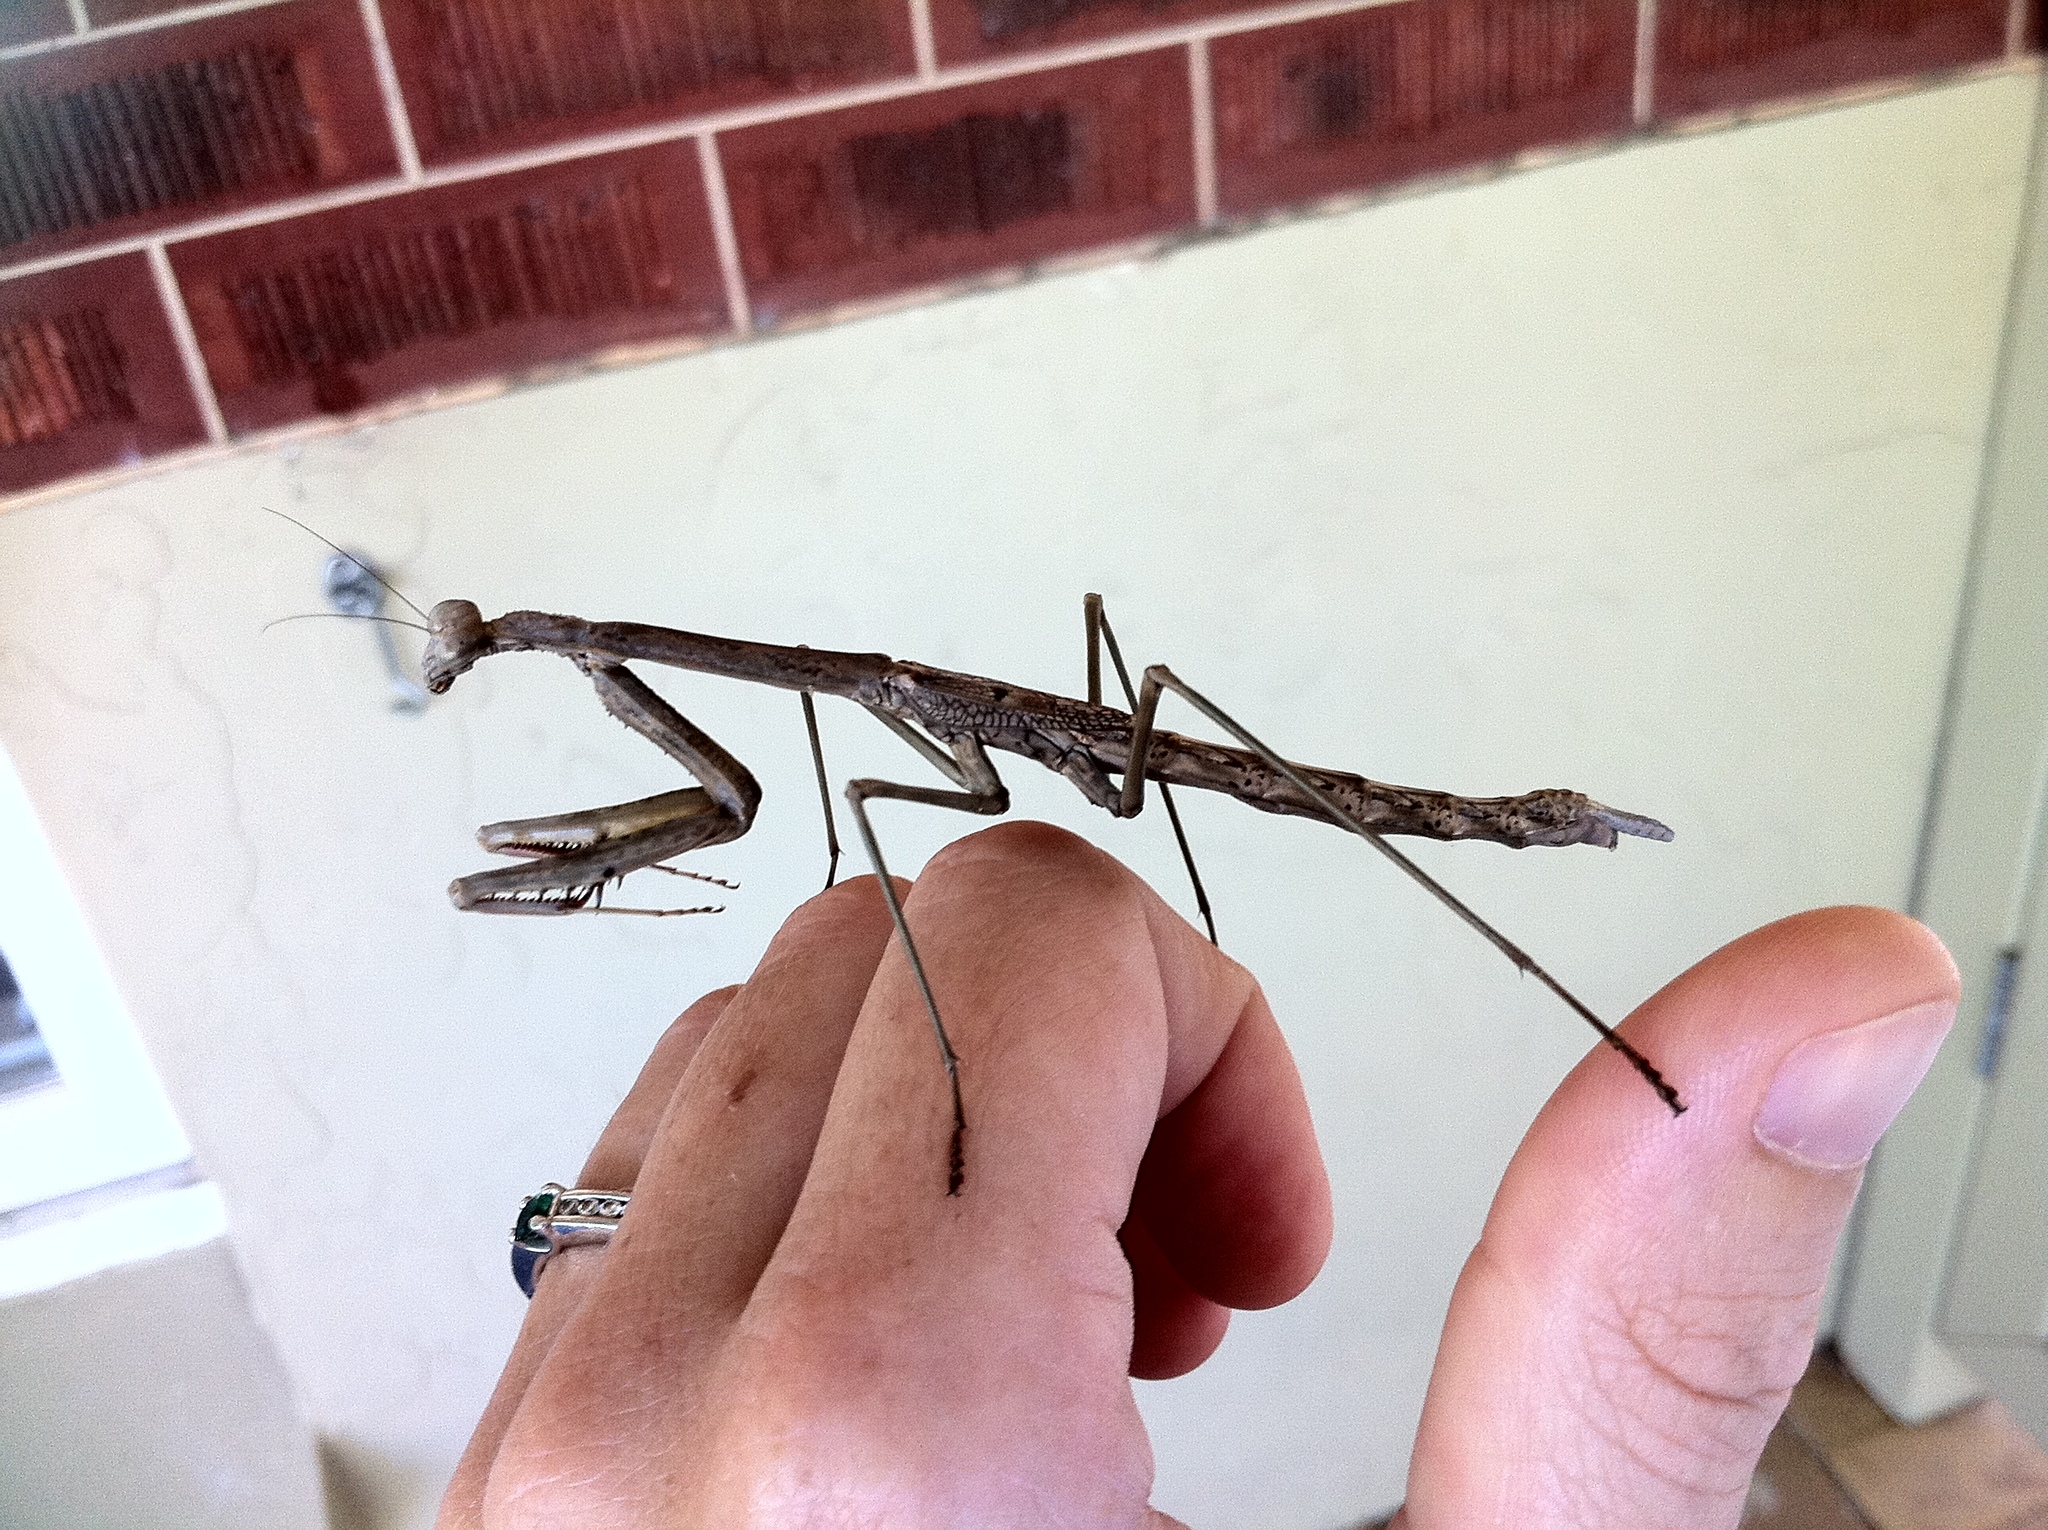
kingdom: Animalia
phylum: Arthropoda
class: Insecta
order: Mantodea
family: Mantidae
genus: Archimantis
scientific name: Archimantis sobrina
